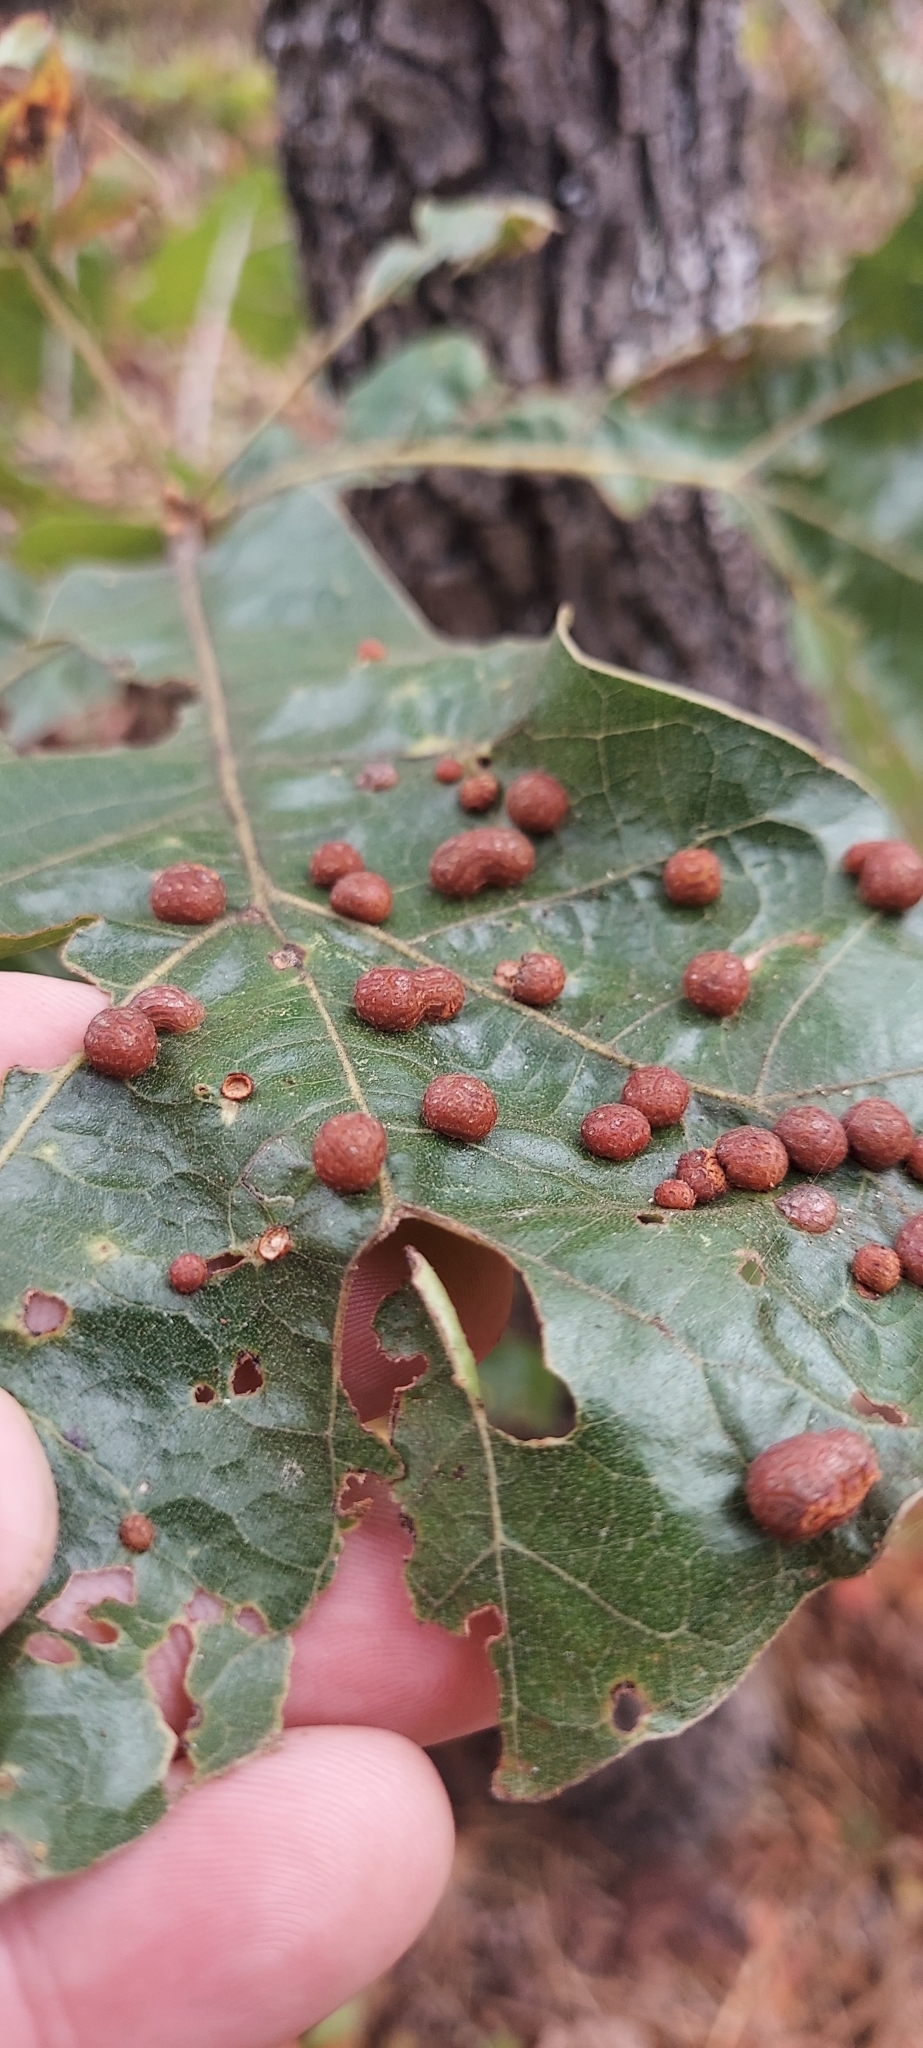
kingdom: Animalia
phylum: Arthropoda
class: Insecta
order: Diptera
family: Cecidomyiidae
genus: Polystepha
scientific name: Polystepha pilulae
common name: Oak leaf gall midge
